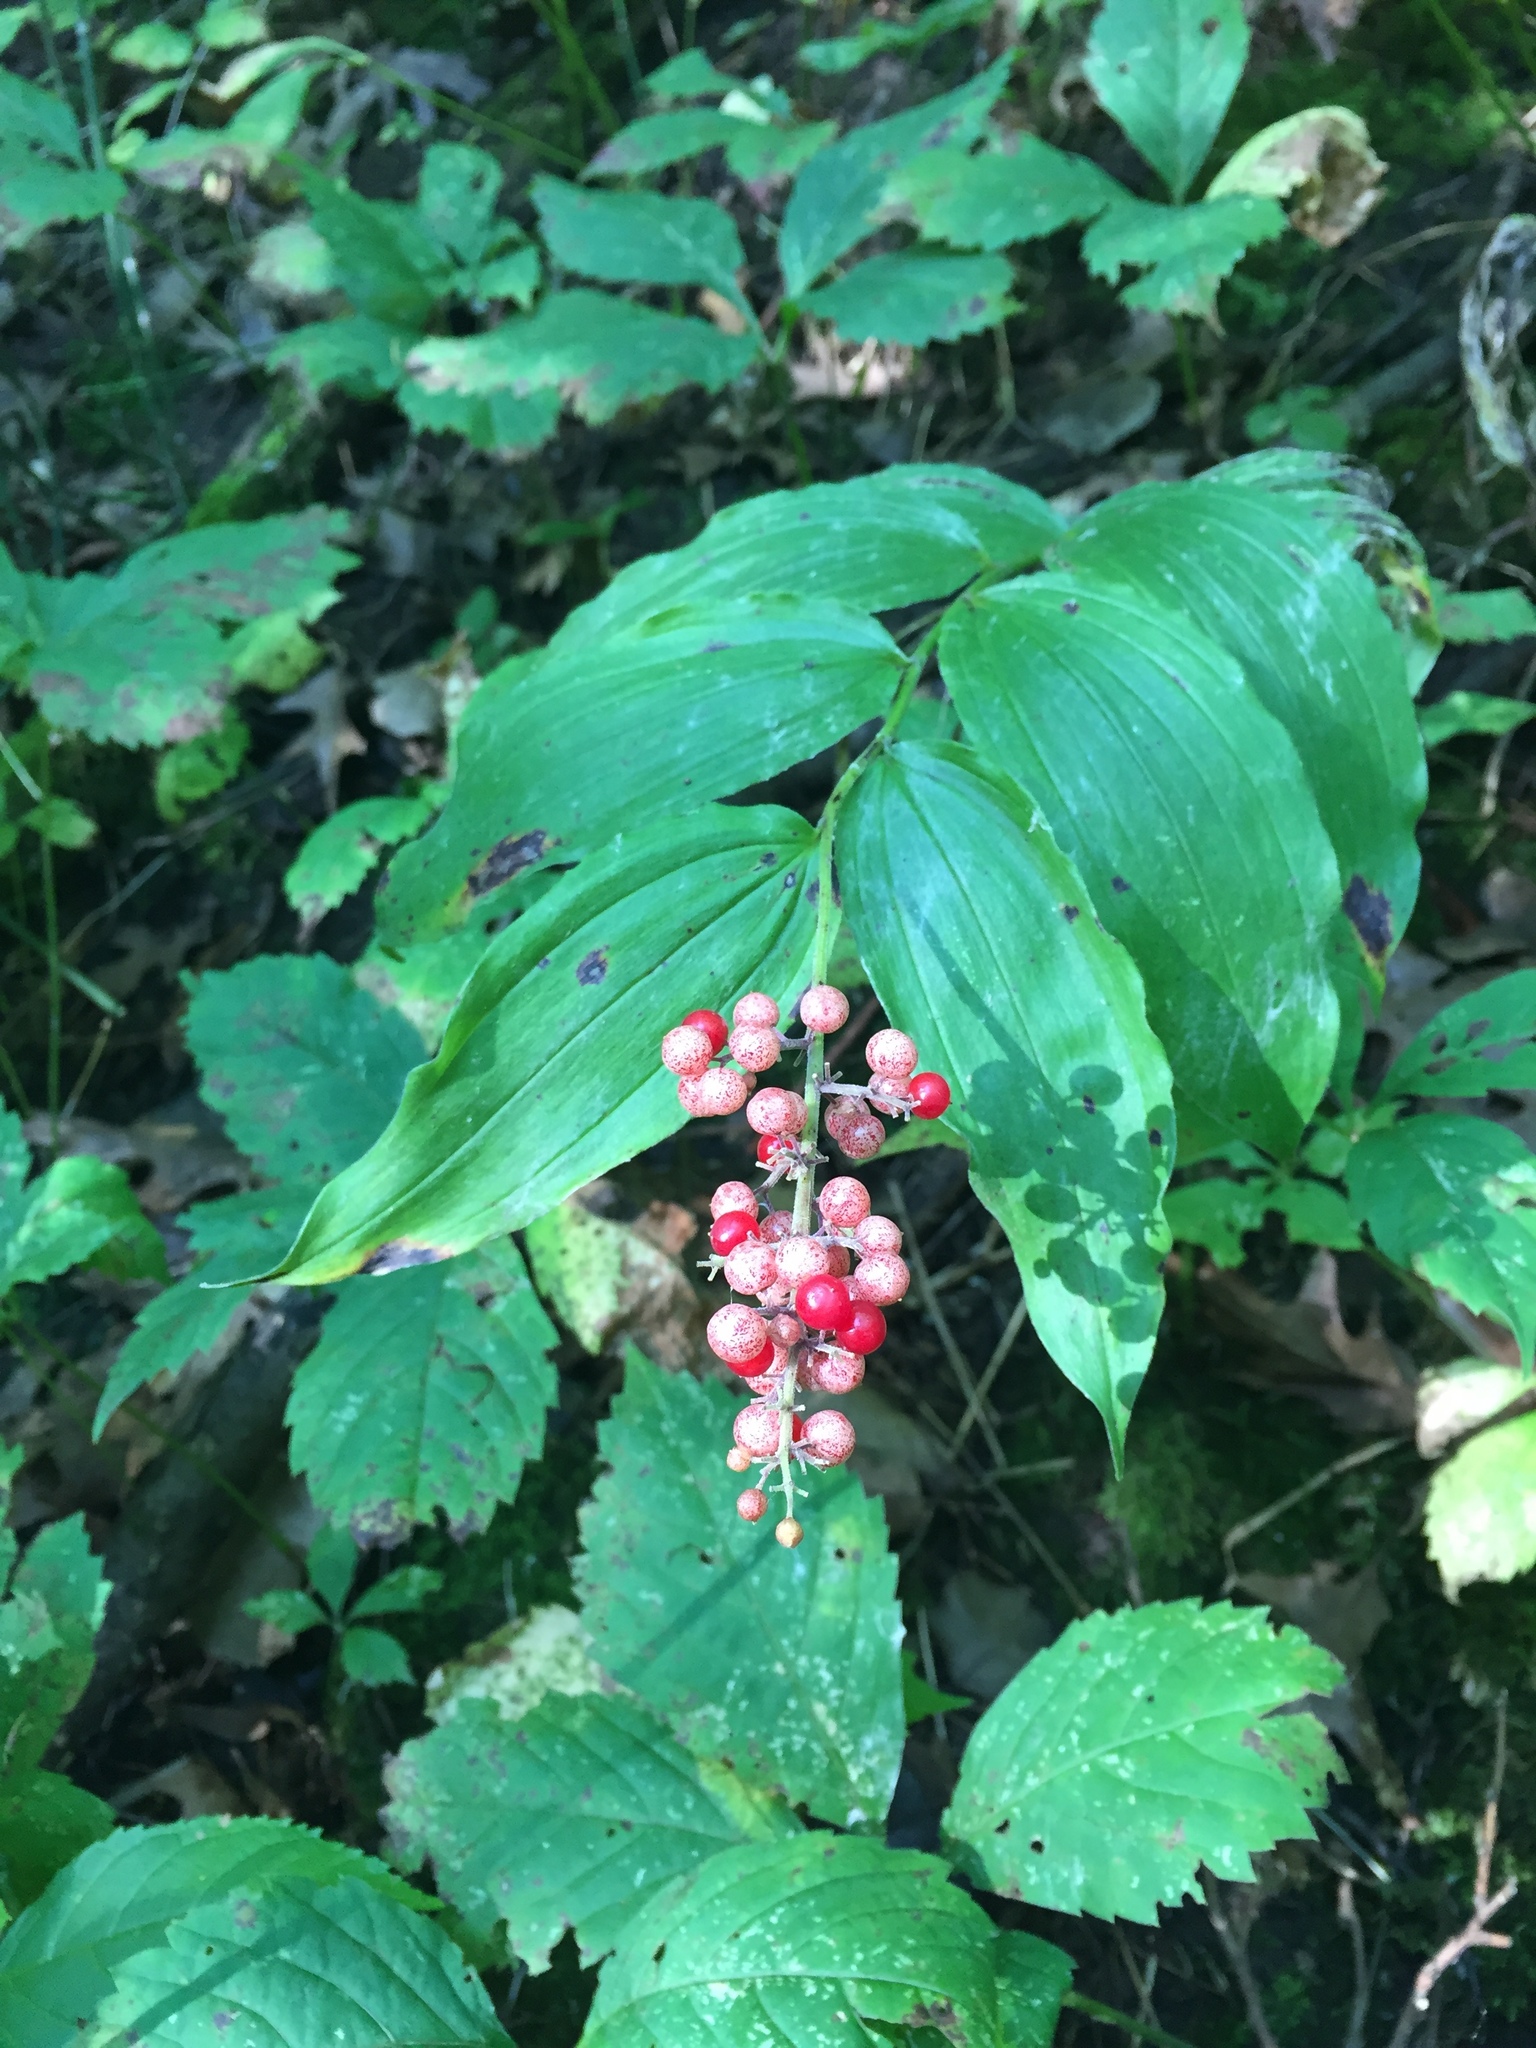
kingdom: Plantae
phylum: Tracheophyta
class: Liliopsida
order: Asparagales
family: Asparagaceae
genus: Maianthemum
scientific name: Maianthemum racemosum
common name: False spikenard
